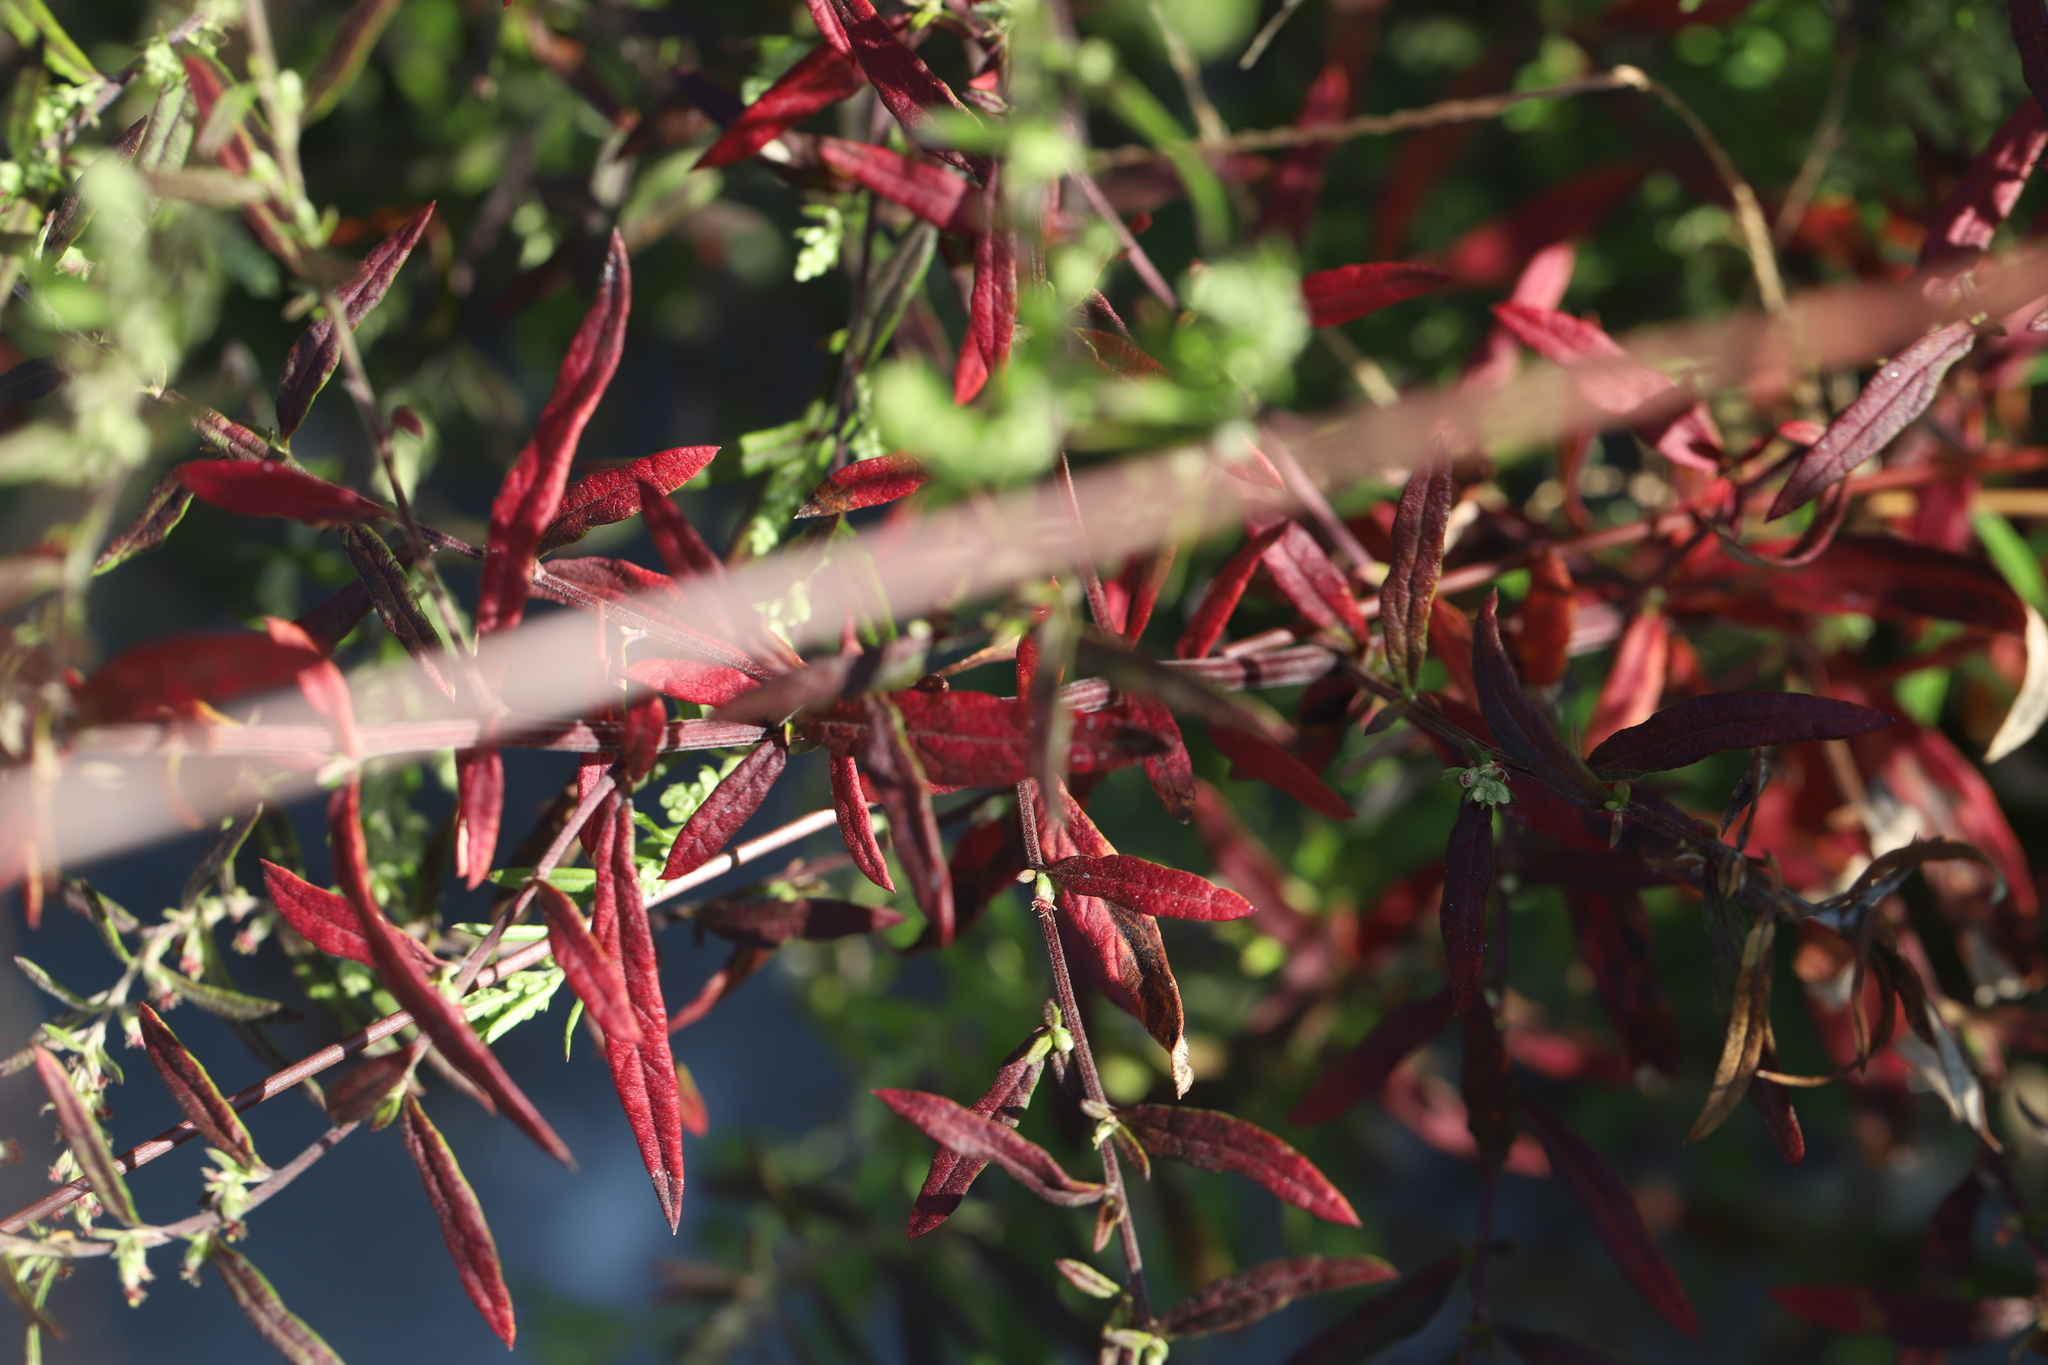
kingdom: Plantae
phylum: Tracheophyta
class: Magnoliopsida
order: Caryophyllales
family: Amaranthaceae
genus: Bassia
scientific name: Bassia scoparia
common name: Belvedere
